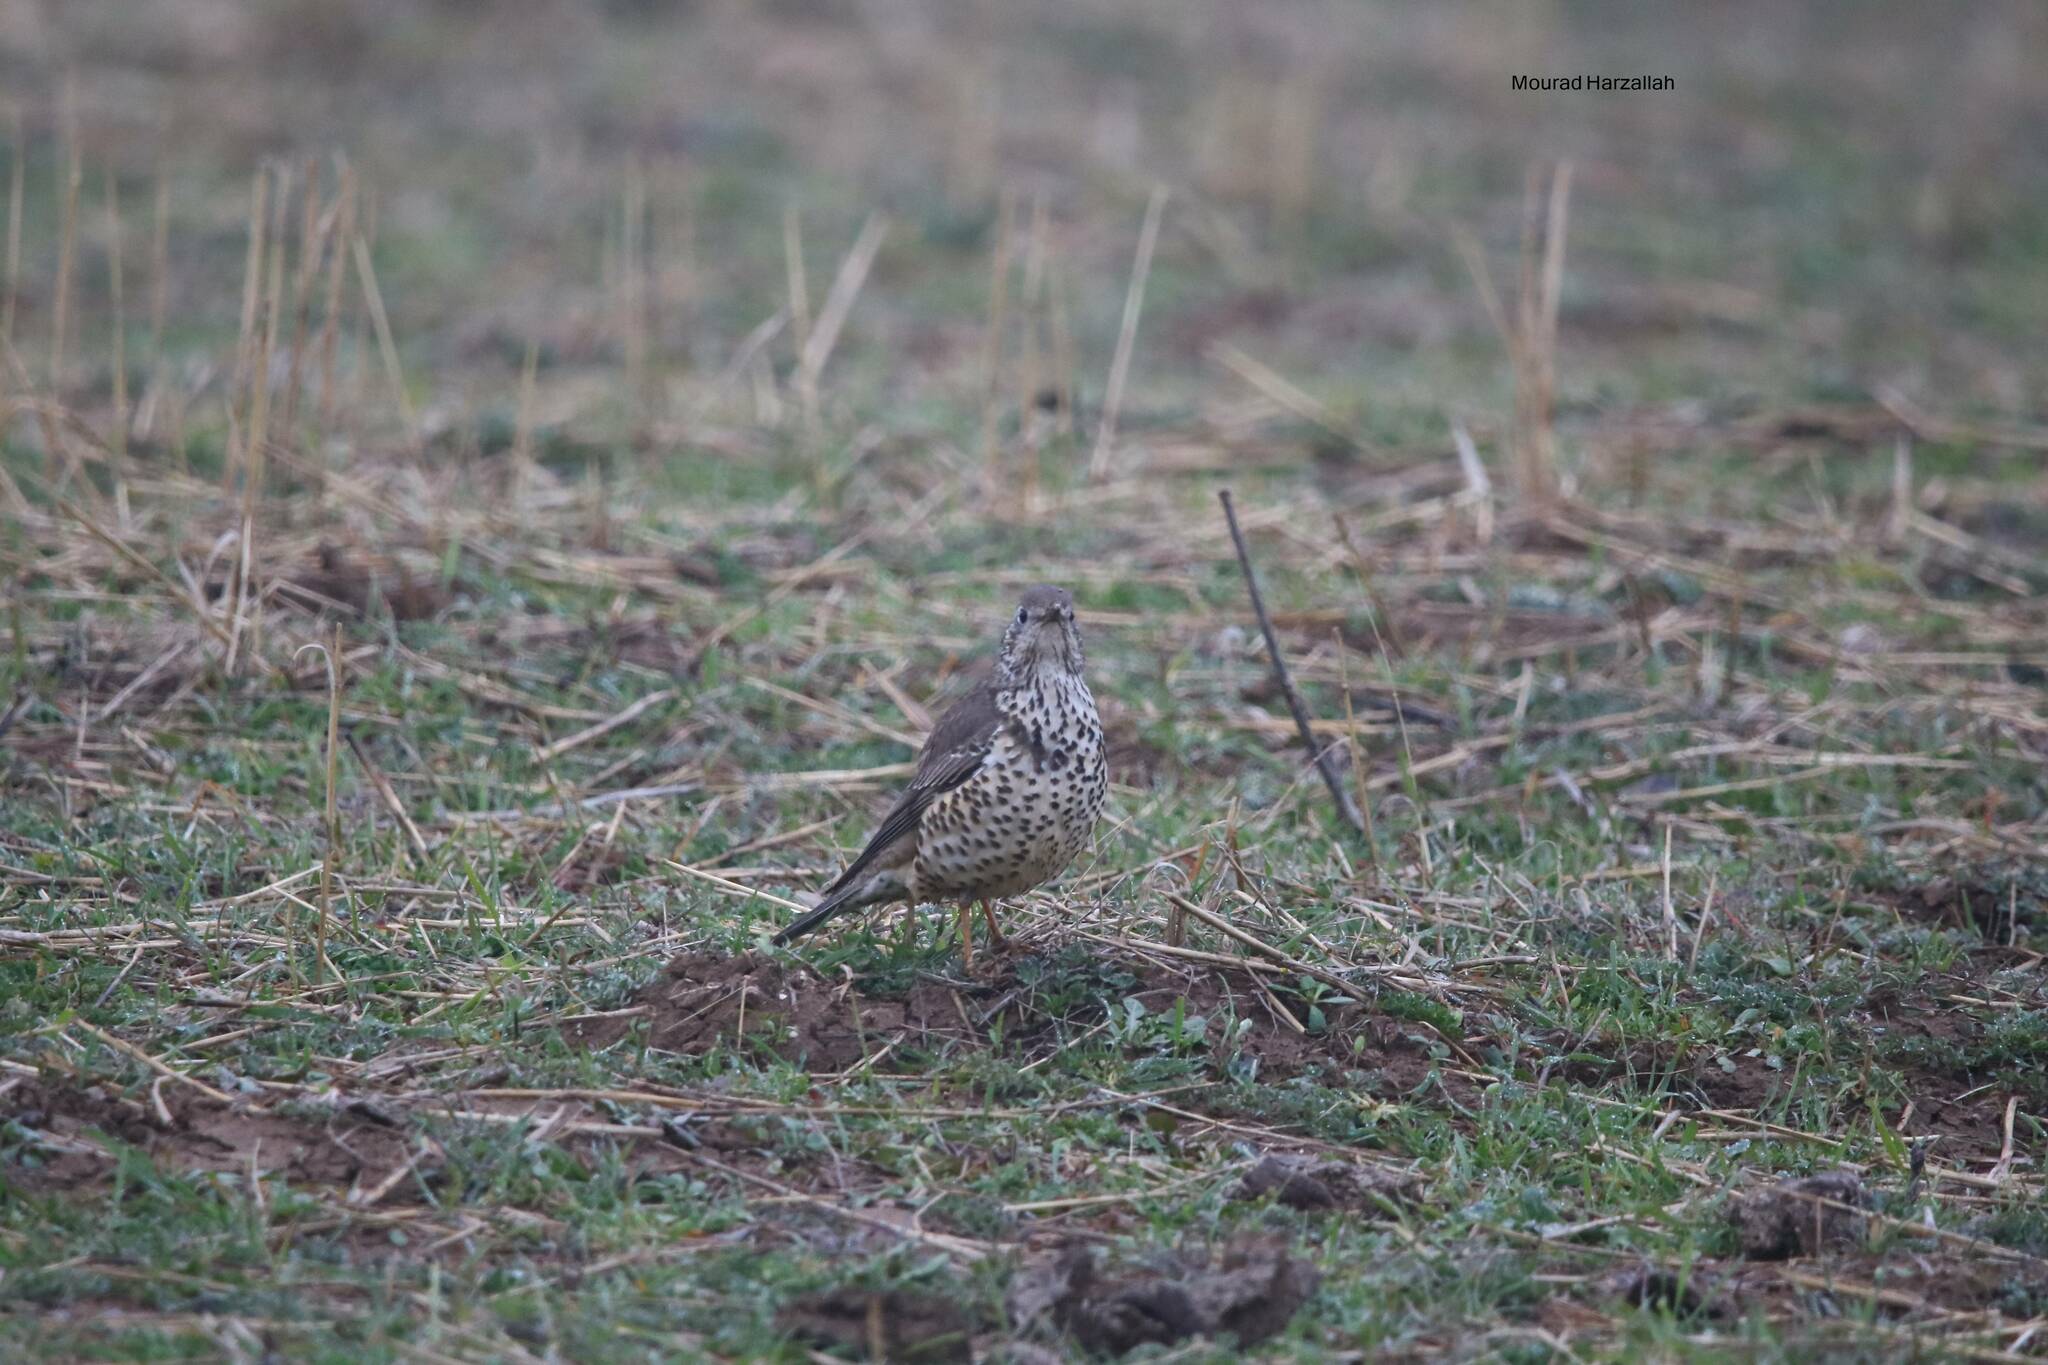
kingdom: Animalia
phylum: Chordata
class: Aves
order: Passeriformes
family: Turdidae
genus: Turdus
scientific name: Turdus viscivorus
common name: Mistle thrush
